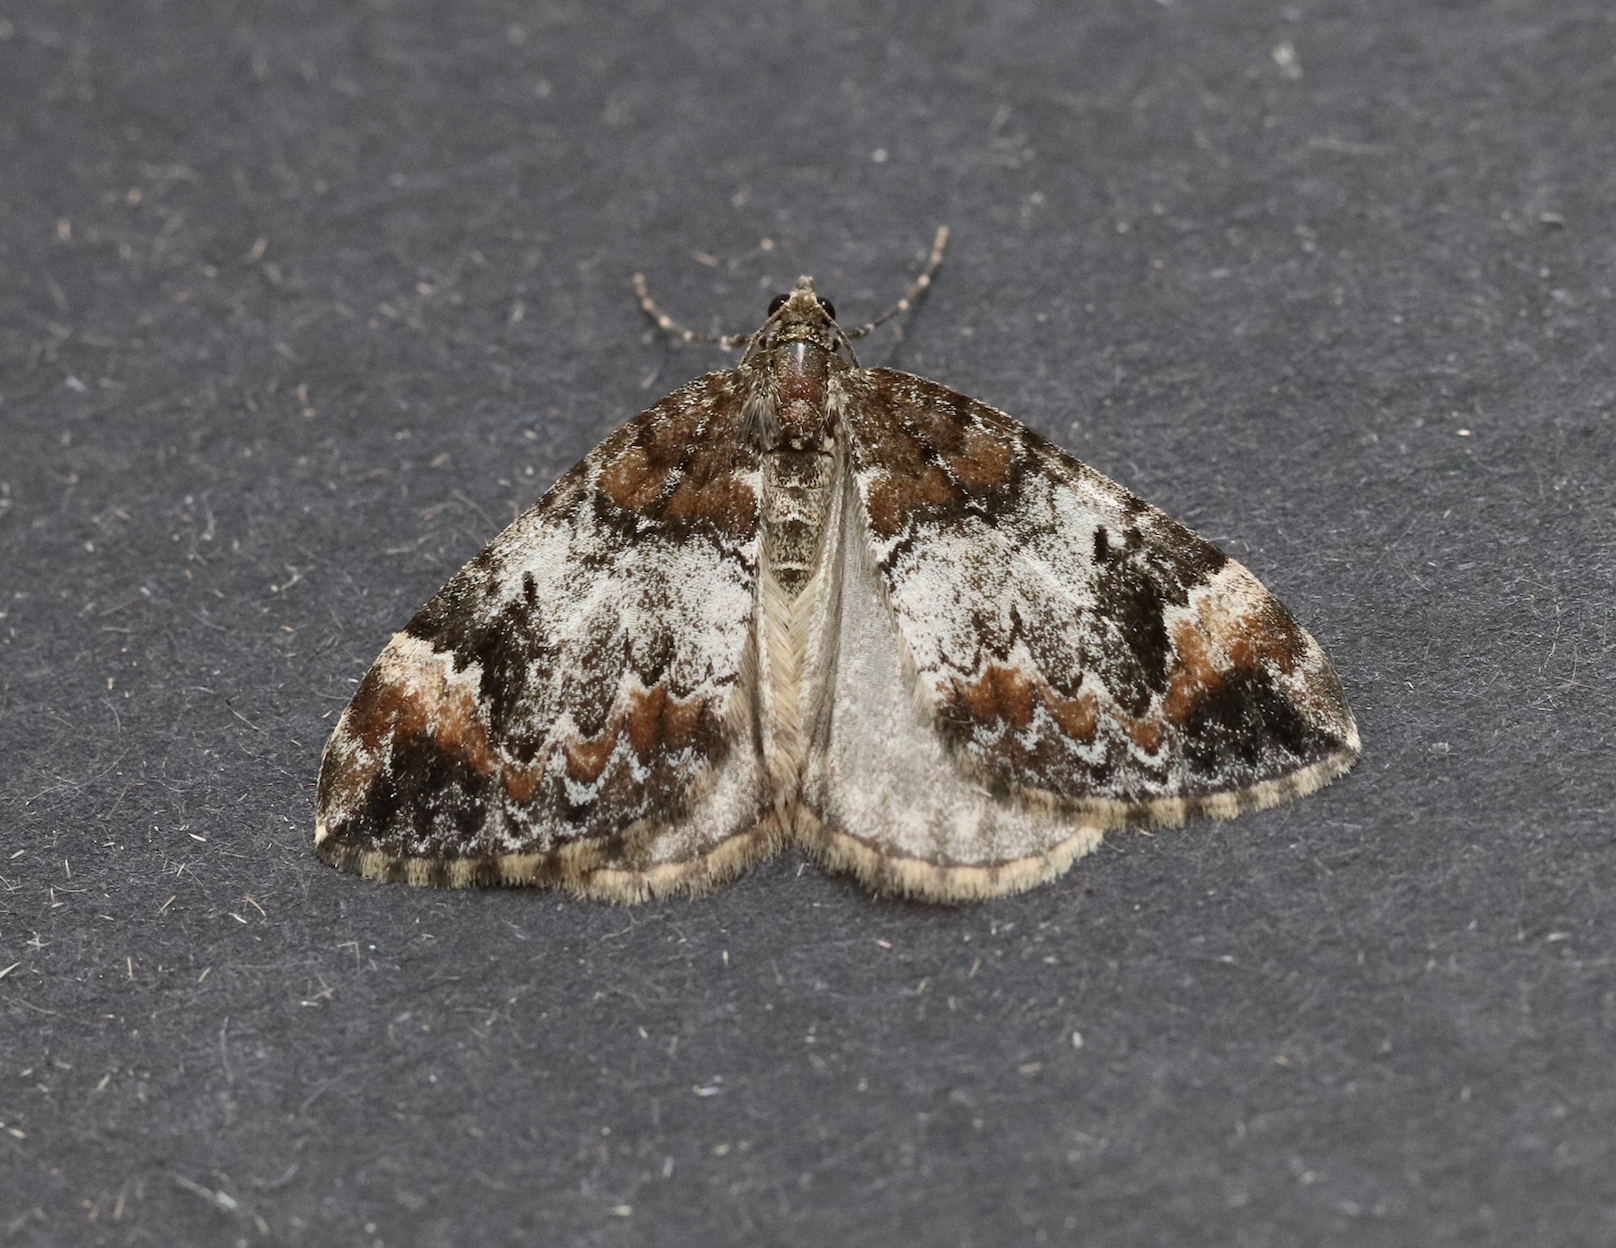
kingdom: Animalia
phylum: Arthropoda
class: Insecta
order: Lepidoptera
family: Geometridae
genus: Dysstroma
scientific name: Dysstroma truncata
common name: Common marbled carpet
